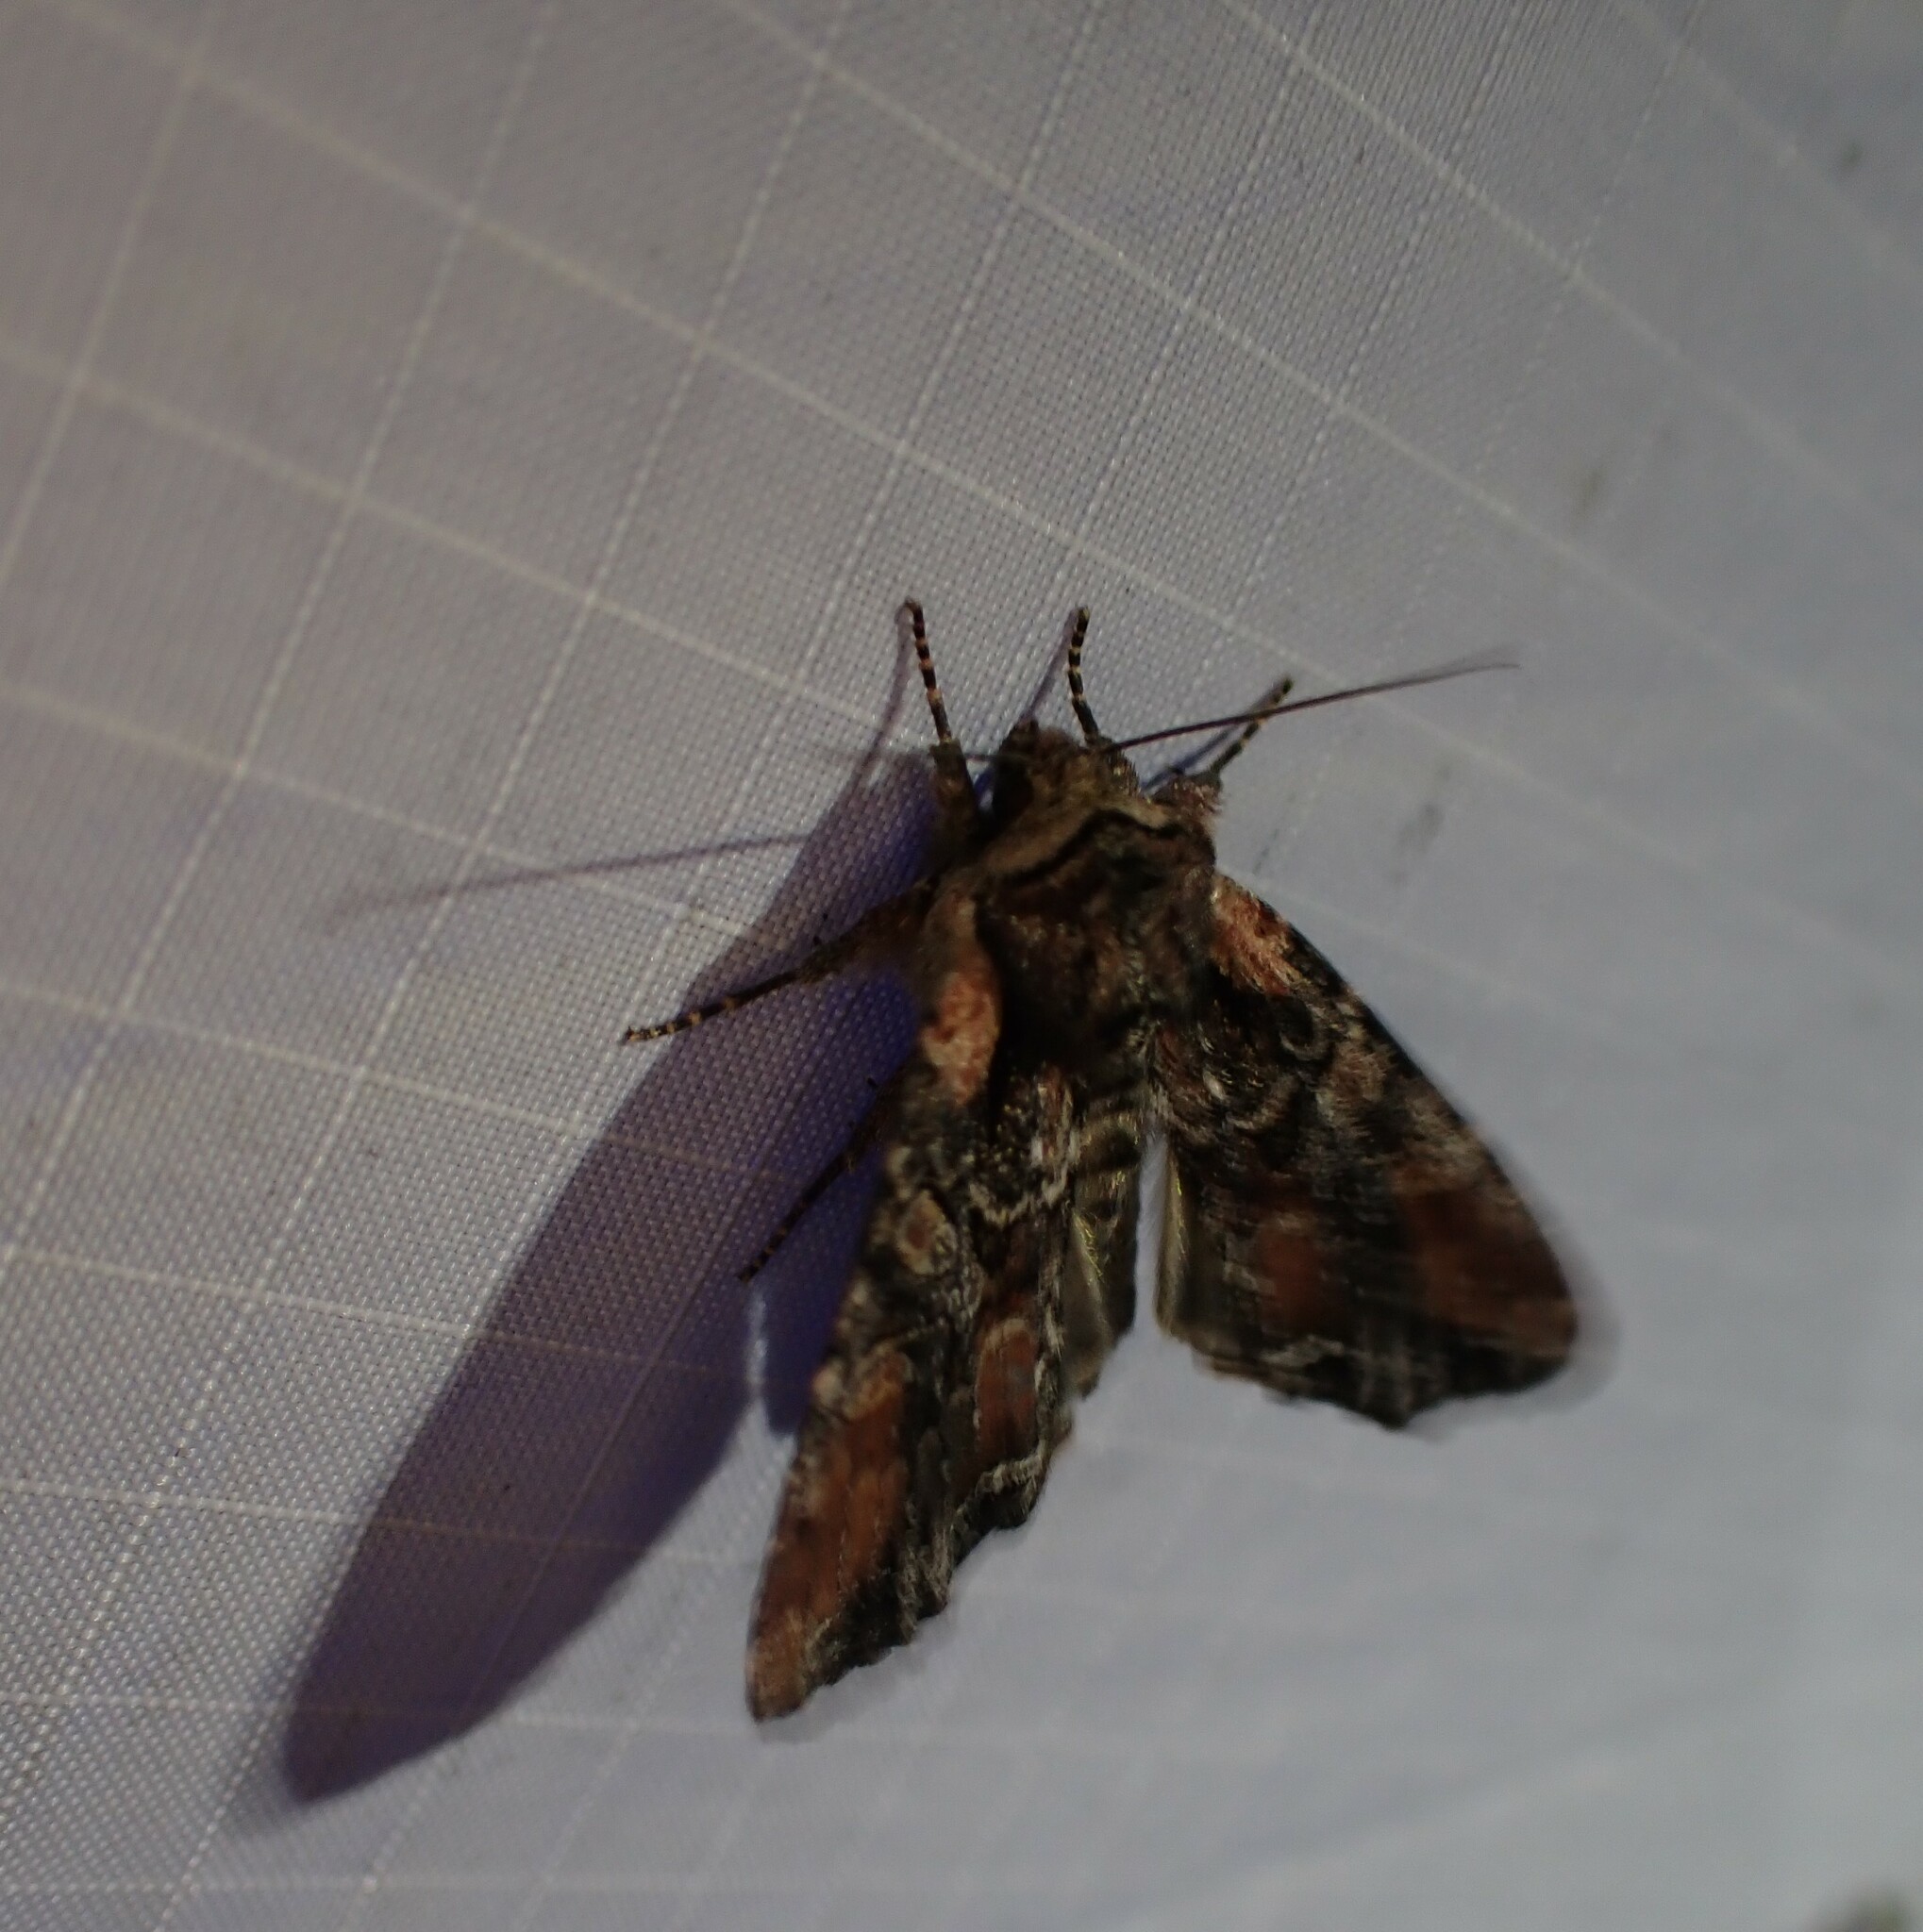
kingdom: Animalia
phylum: Arthropoda
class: Insecta
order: Lepidoptera
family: Noctuidae
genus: Lacanobia
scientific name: Lacanobia nevadae
